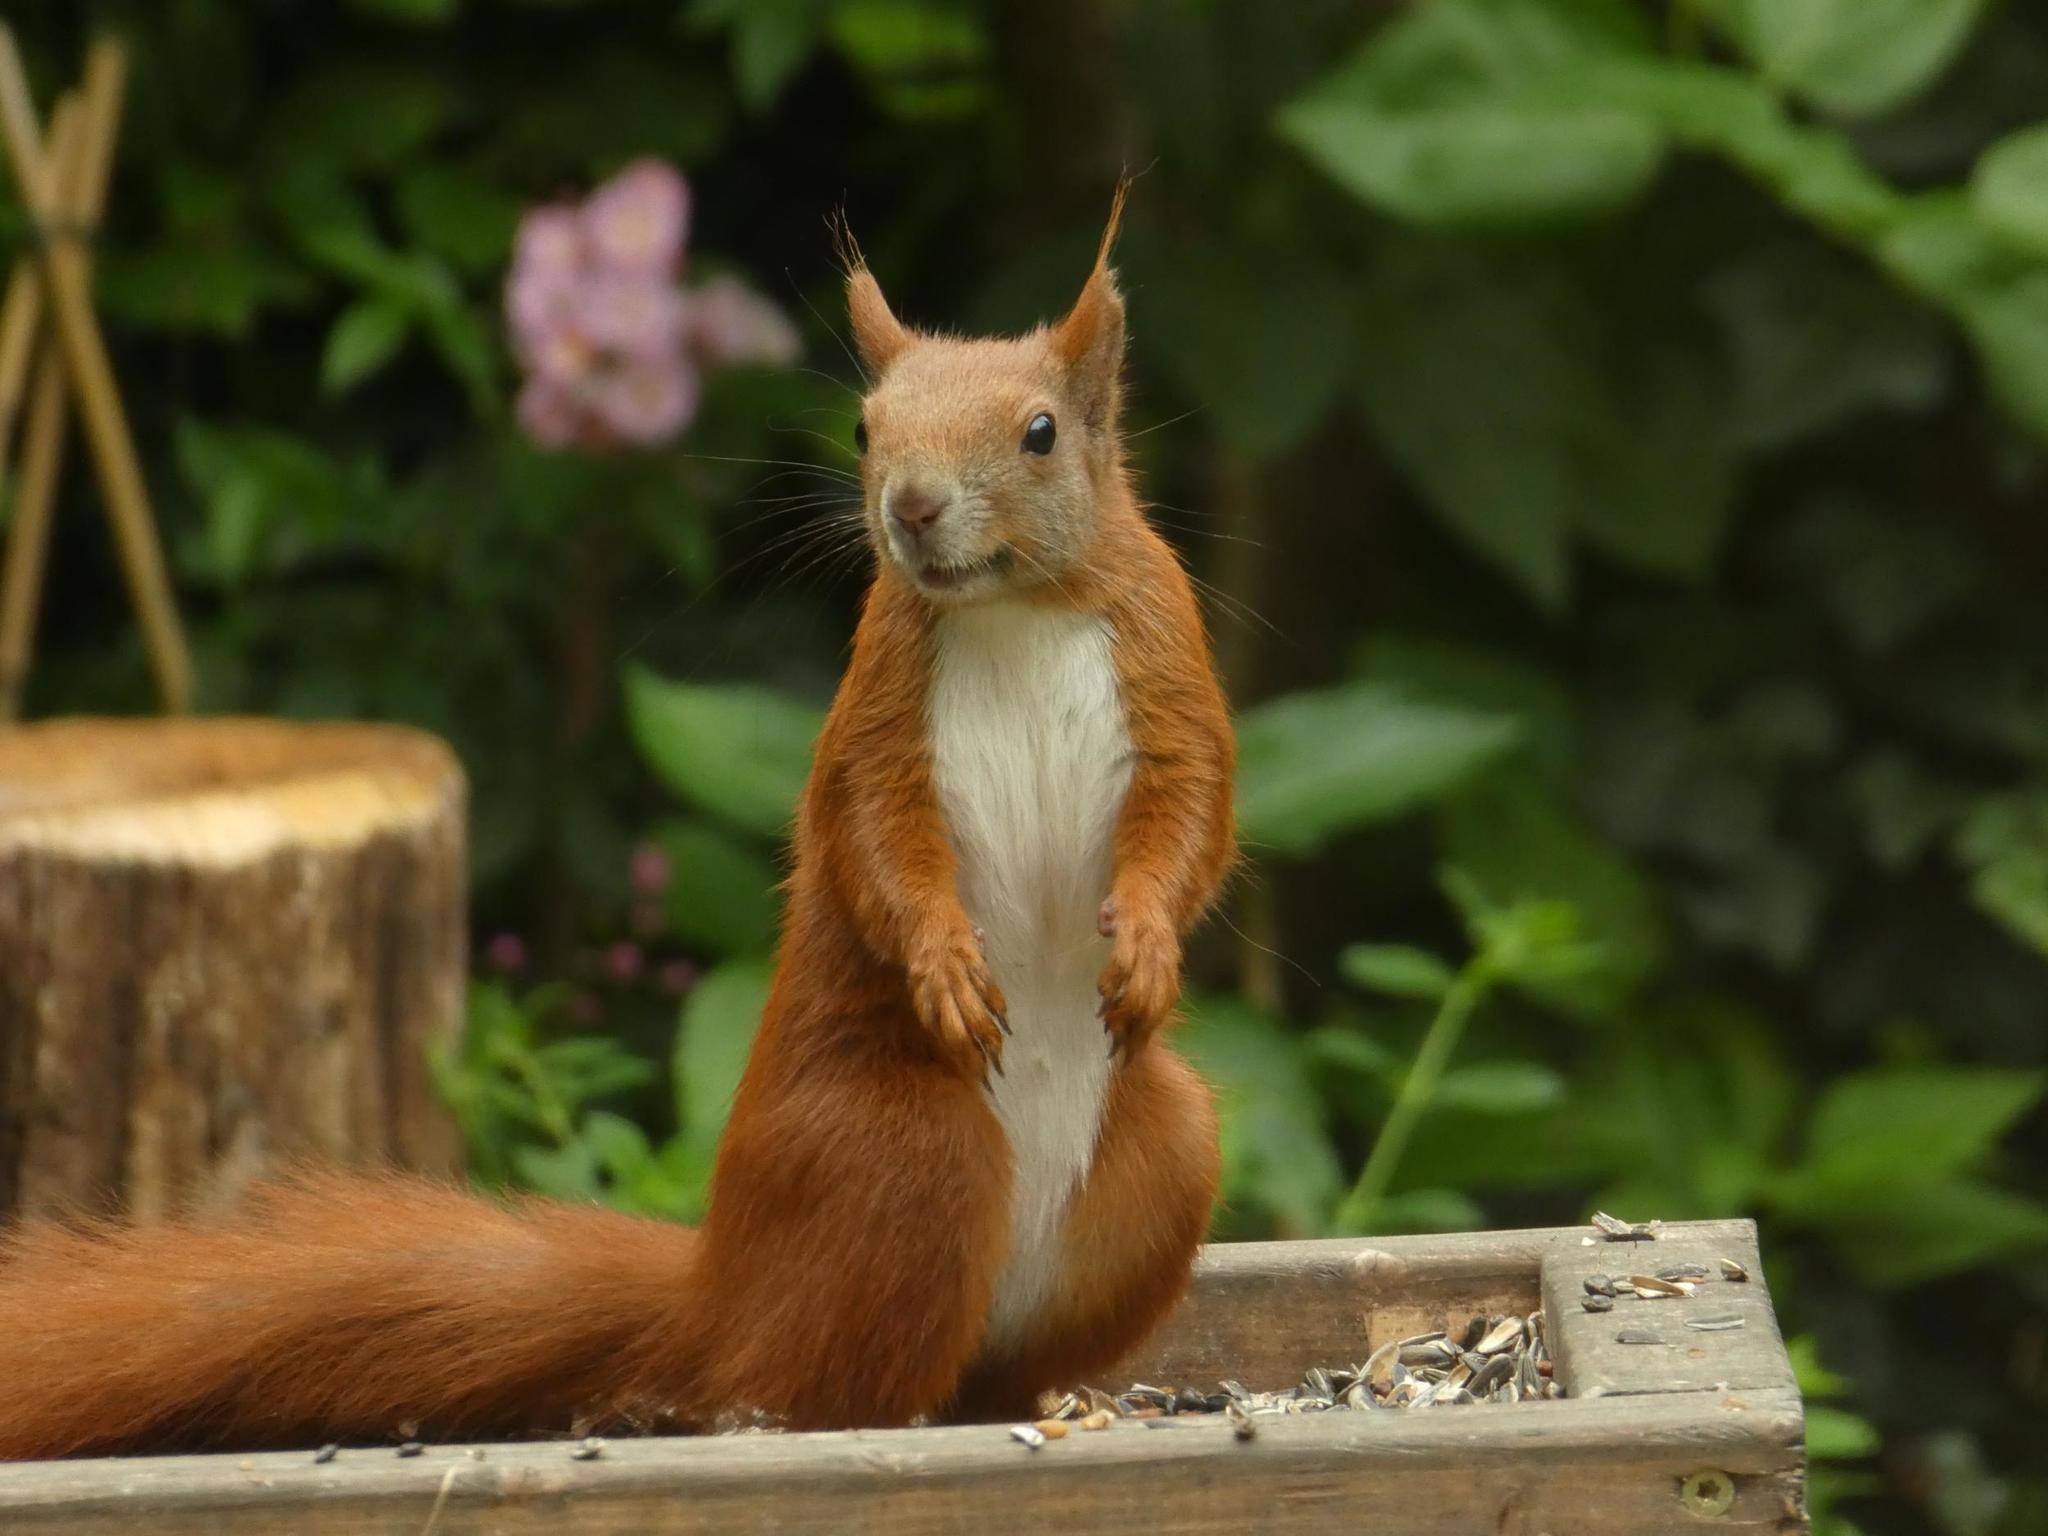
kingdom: Animalia
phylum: Chordata
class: Mammalia
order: Rodentia
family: Sciuridae
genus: Sciurus
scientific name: Sciurus vulgaris
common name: Eurasian red squirrel
